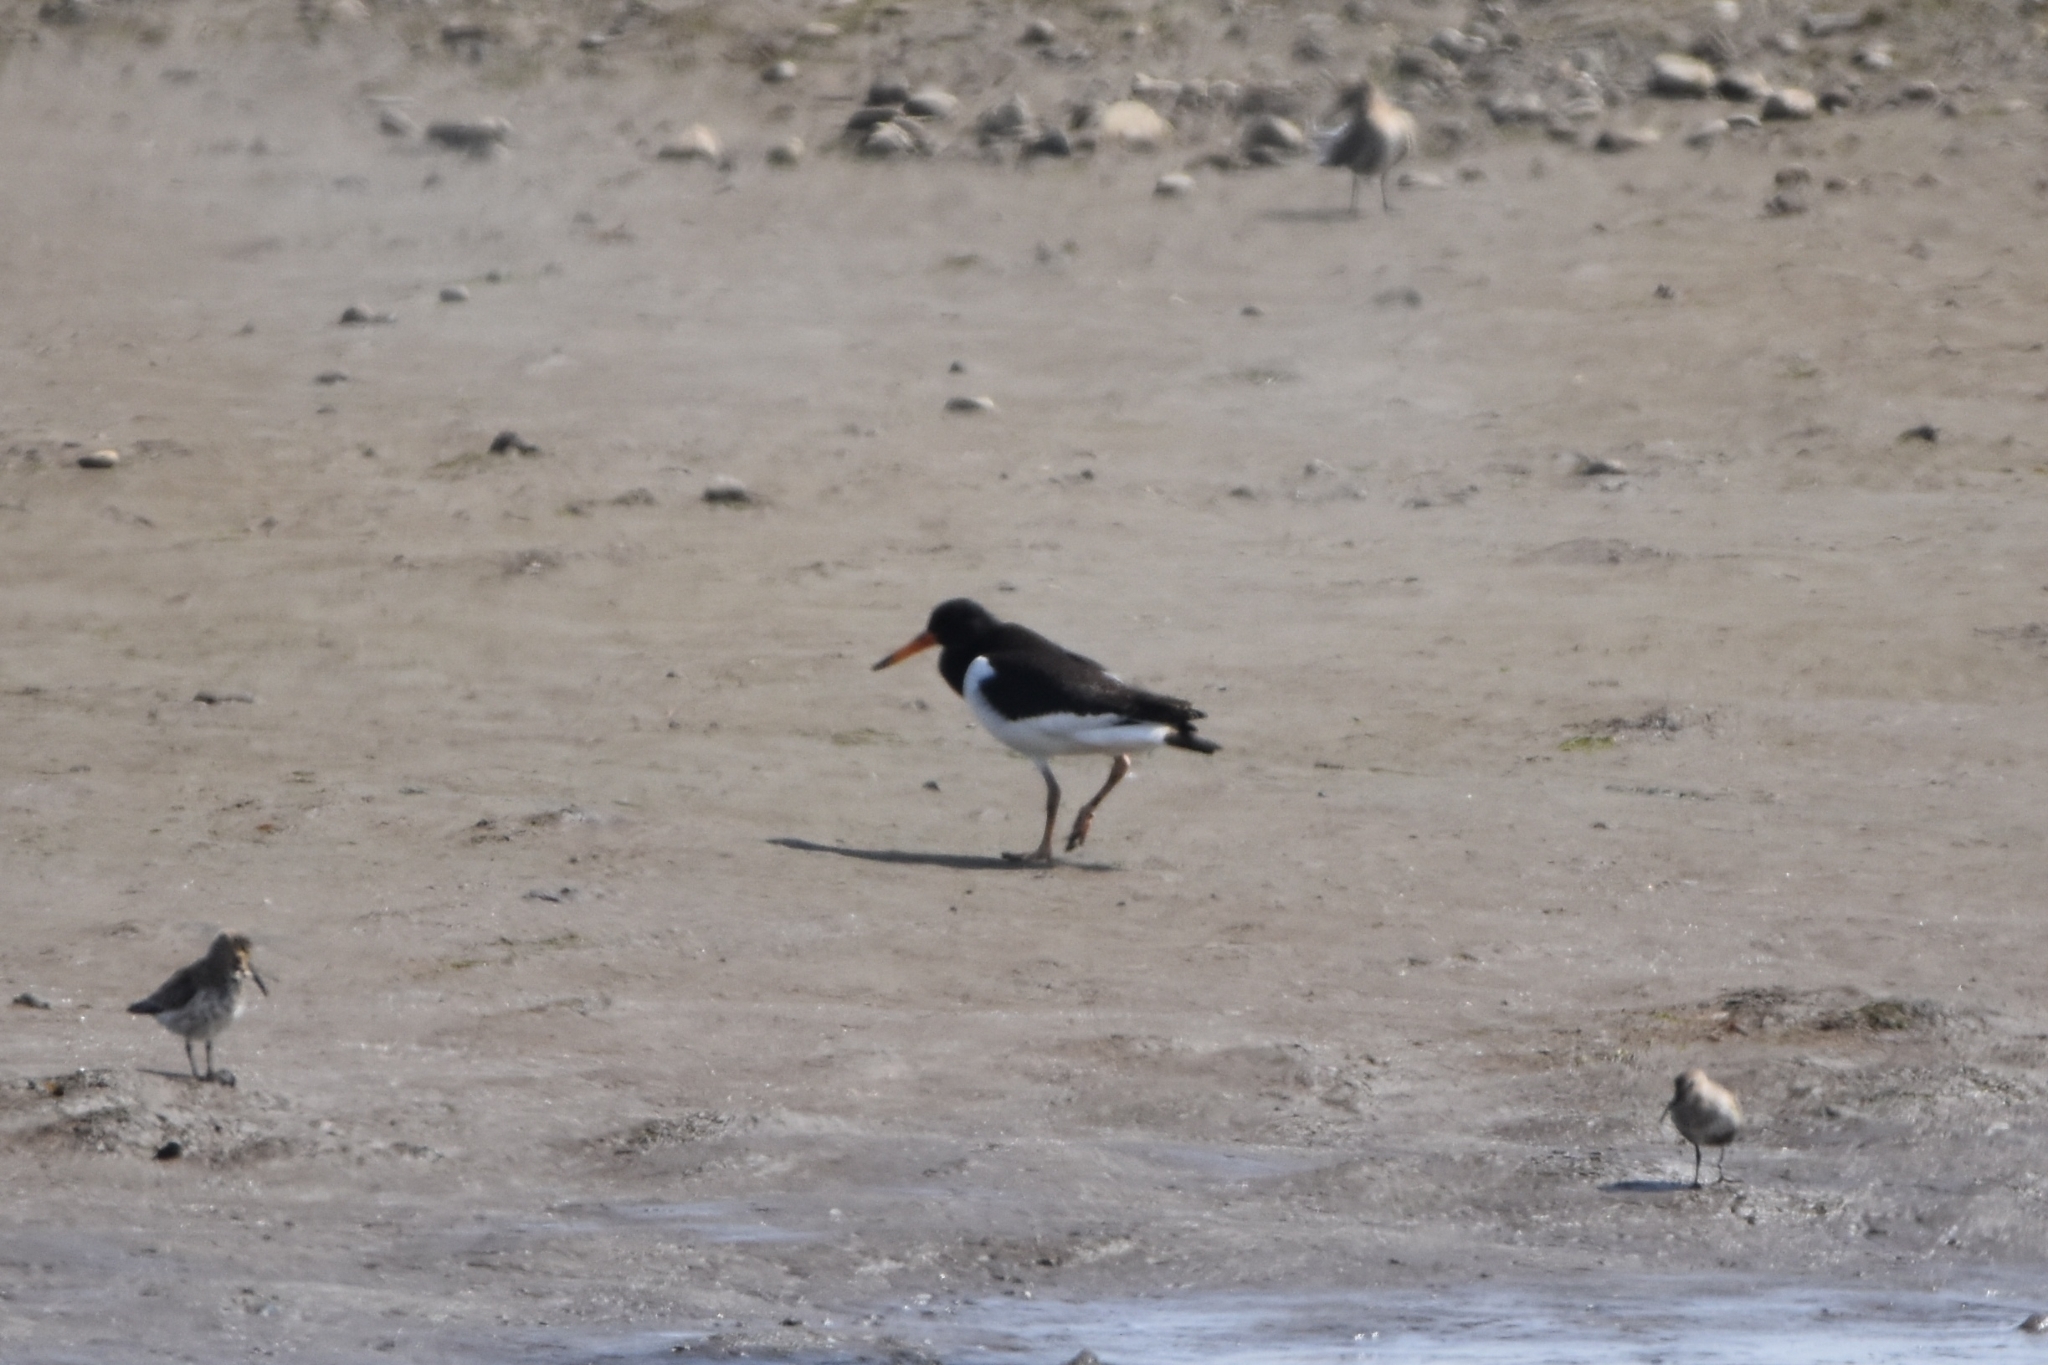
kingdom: Animalia
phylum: Chordata
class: Aves
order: Charadriiformes
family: Haematopodidae
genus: Haematopus
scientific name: Haematopus ostralegus
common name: Eurasian oystercatcher
